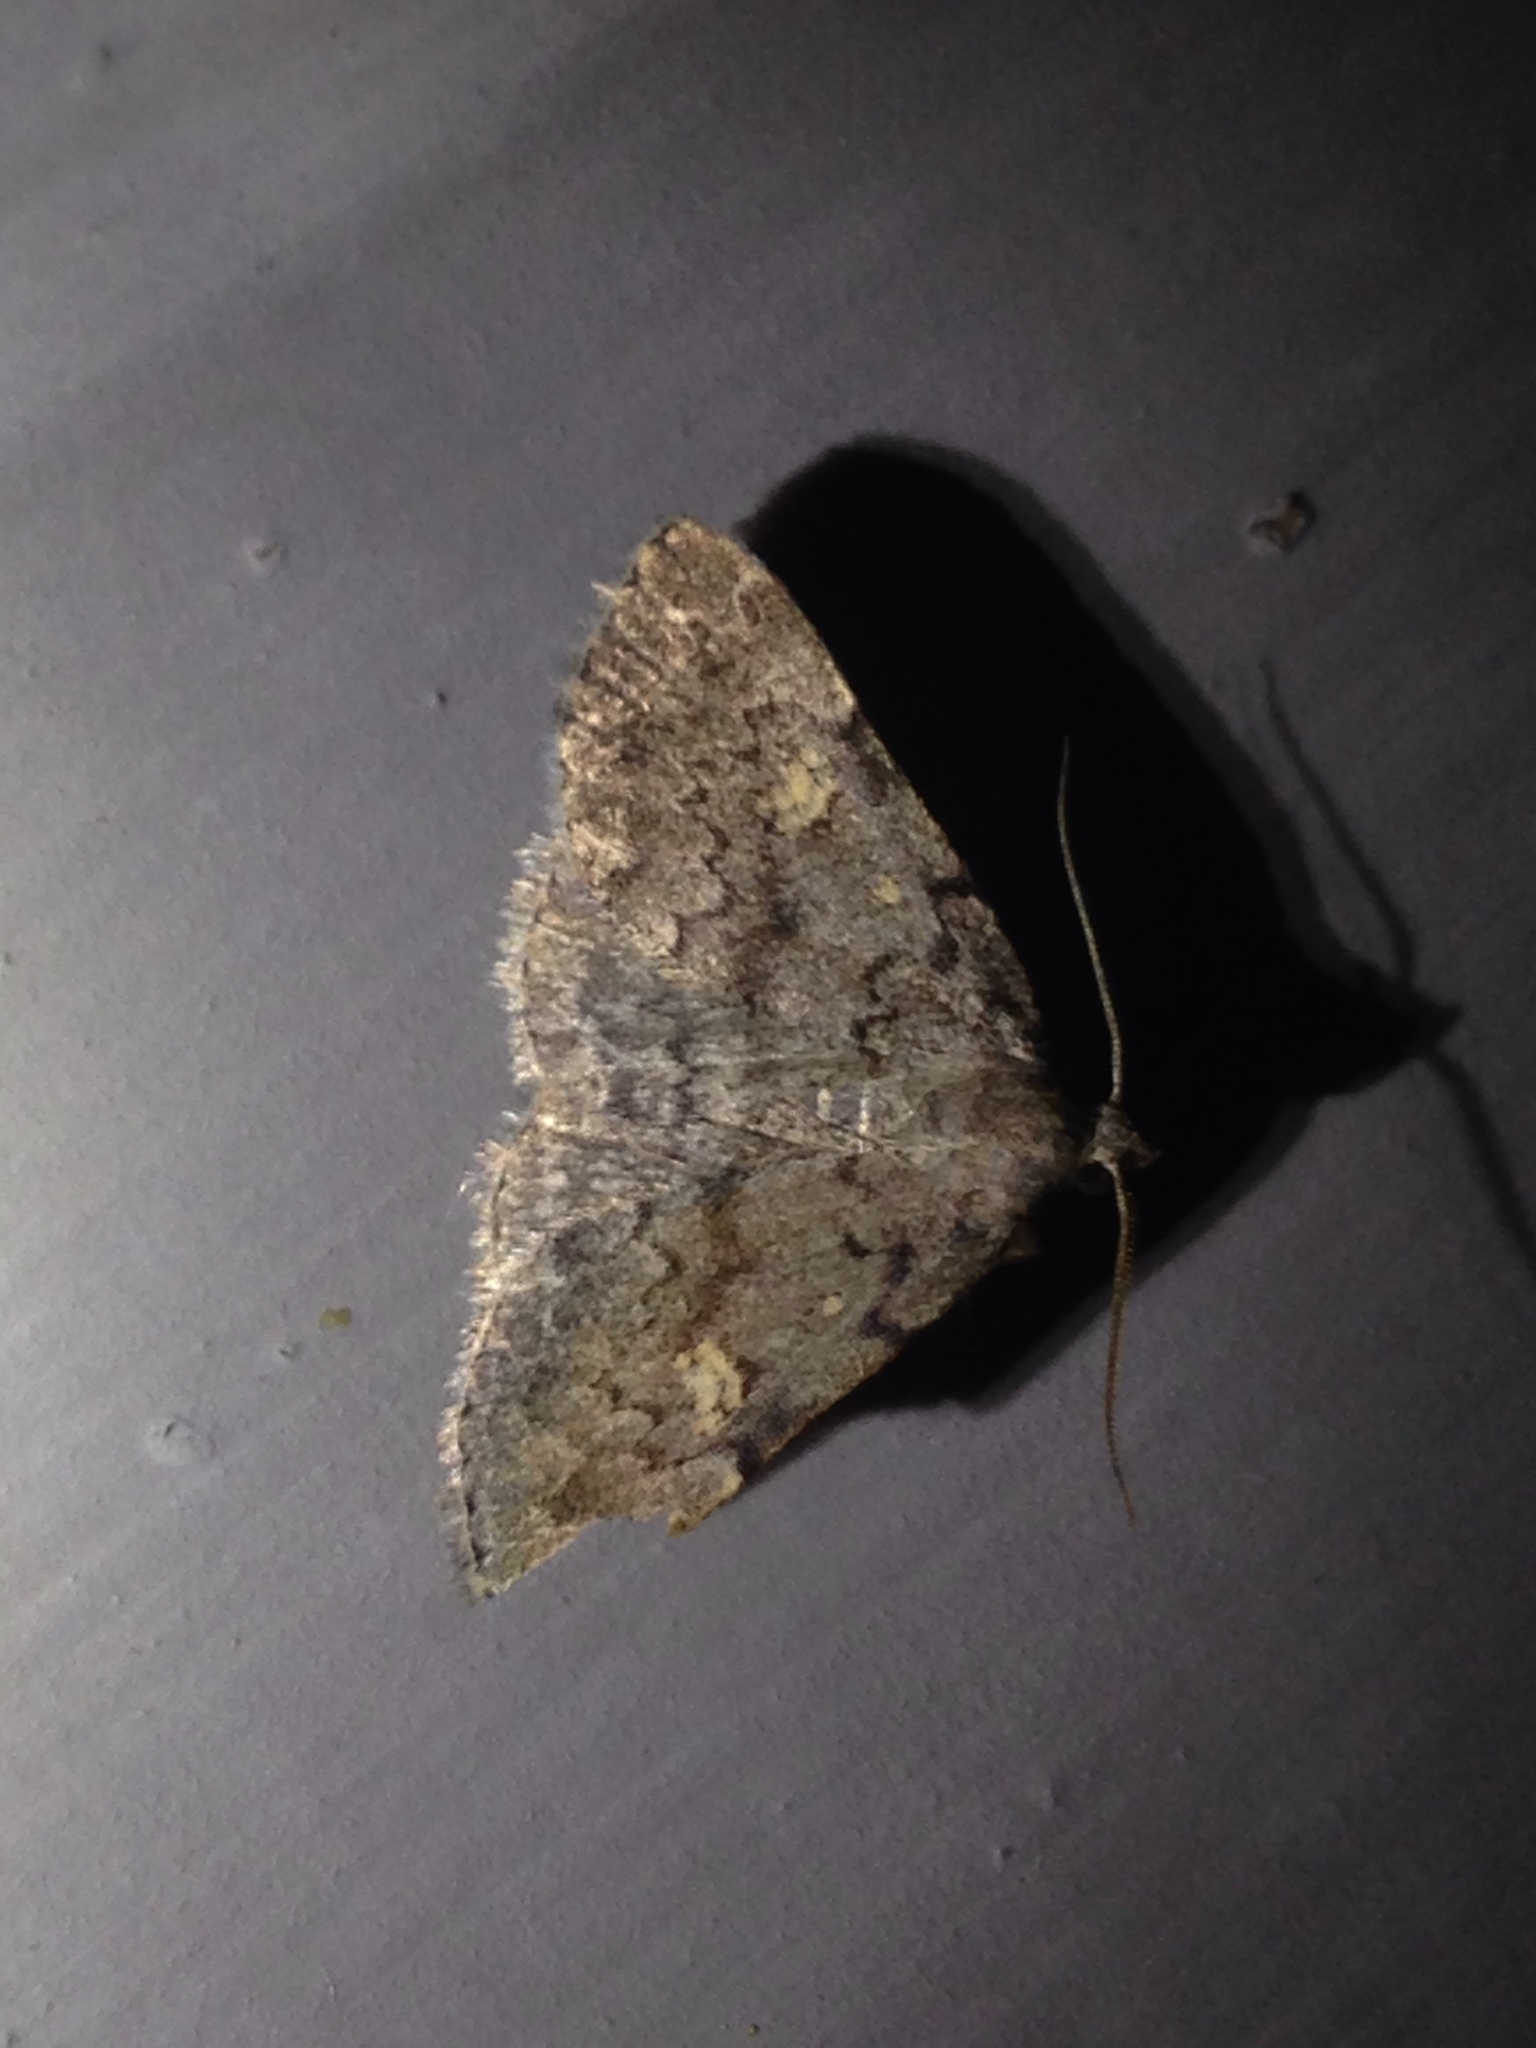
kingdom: Animalia
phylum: Arthropoda
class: Insecta
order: Lepidoptera
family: Erebidae
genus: Idia
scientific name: Idia aemula
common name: Common idia moth
